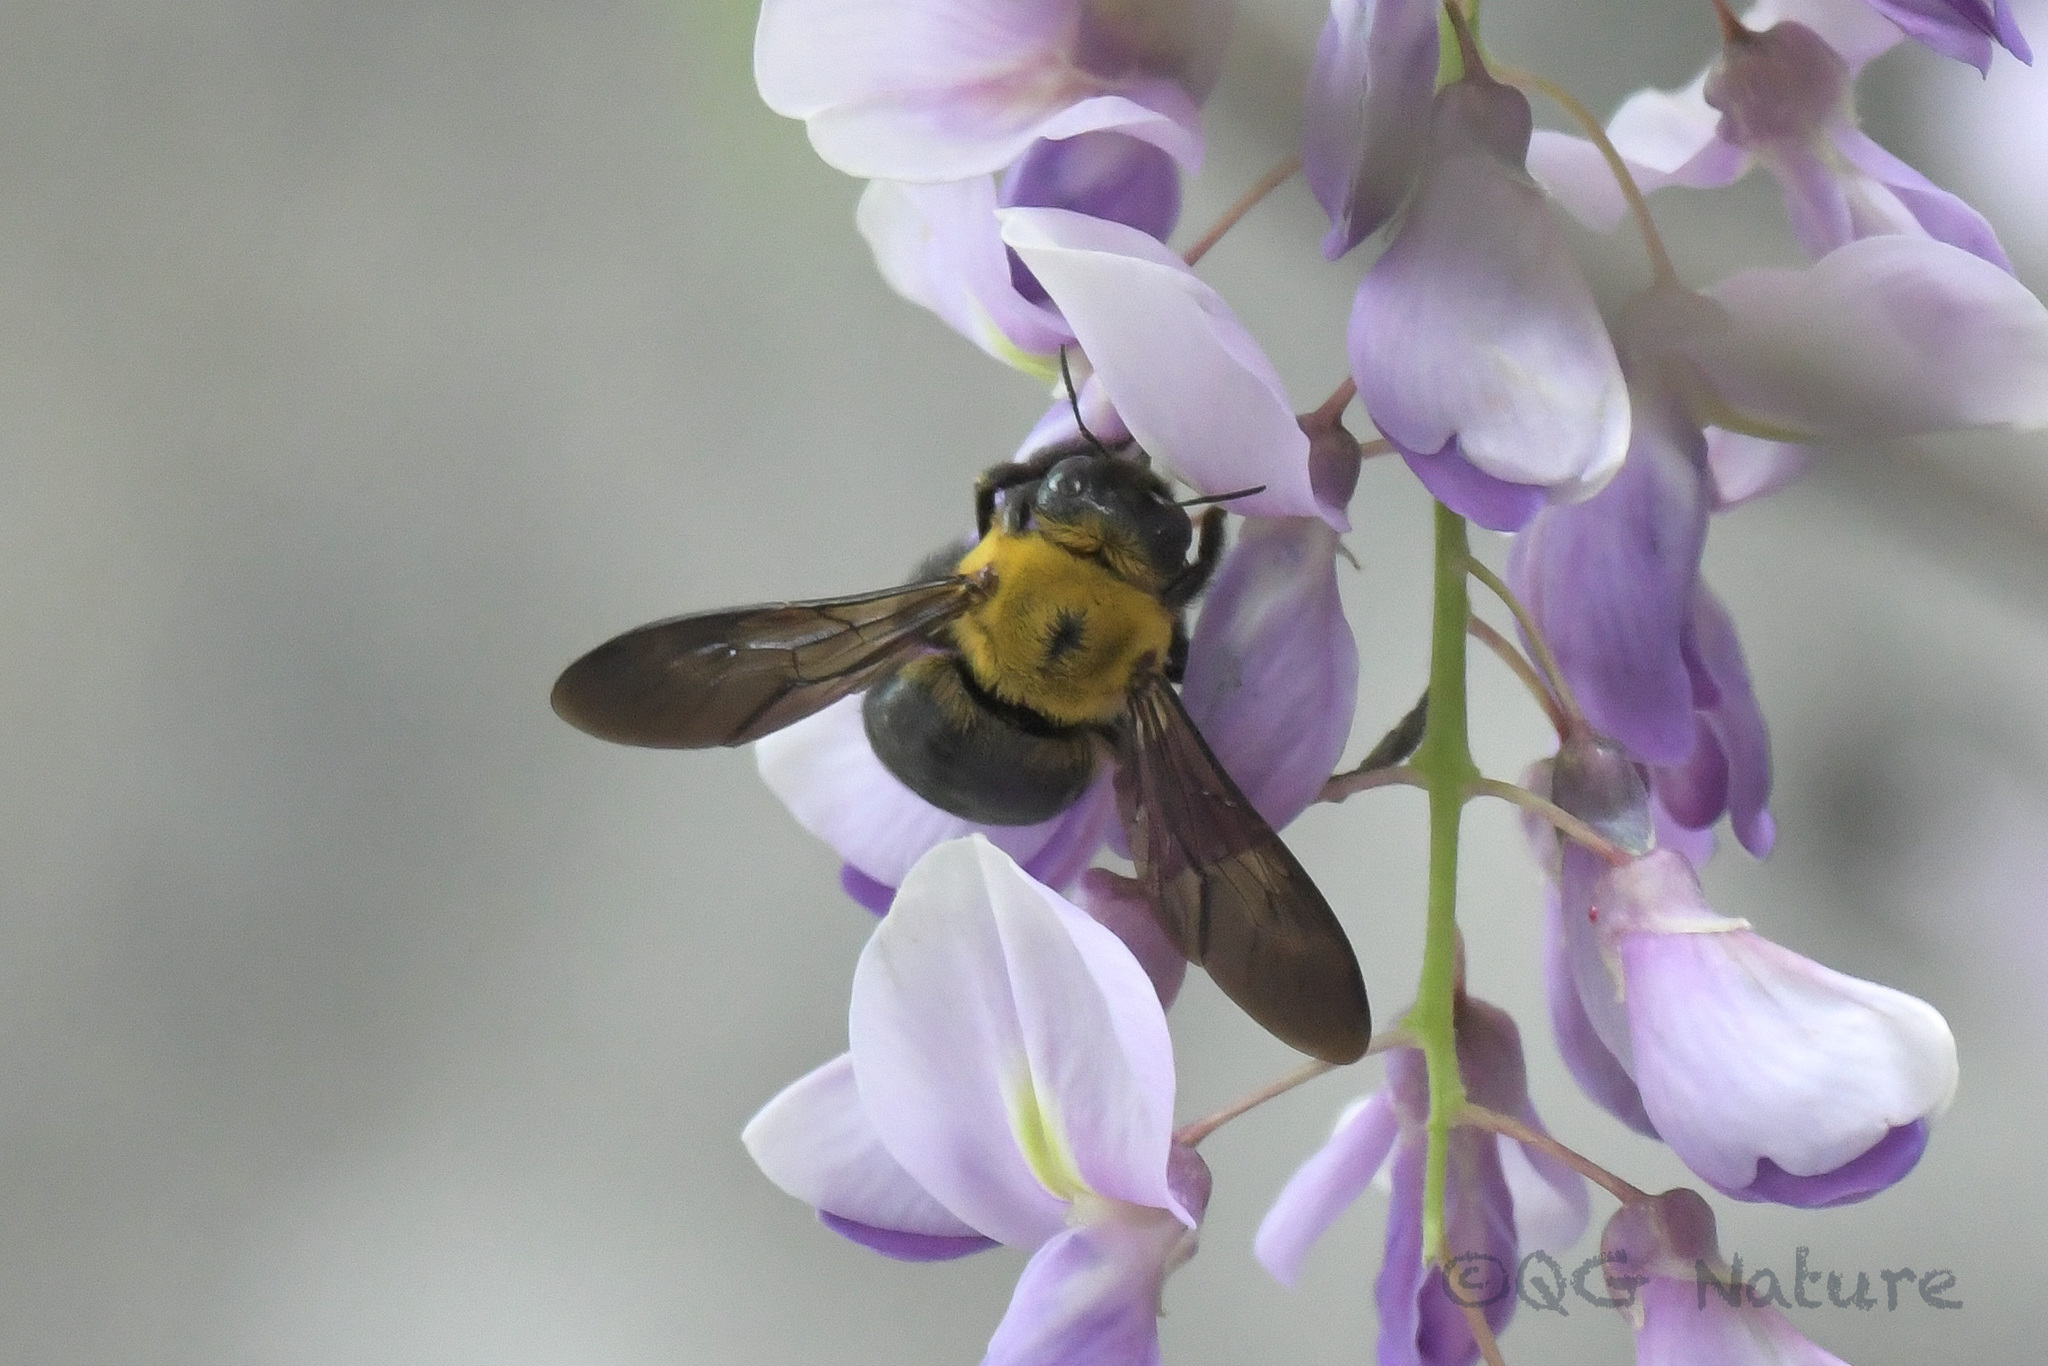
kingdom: Animalia
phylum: Arthropoda
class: Insecta
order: Hymenoptera
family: Apidae
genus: Xylocopa
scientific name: Xylocopa appendiculata
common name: Japanese carpenter bee
